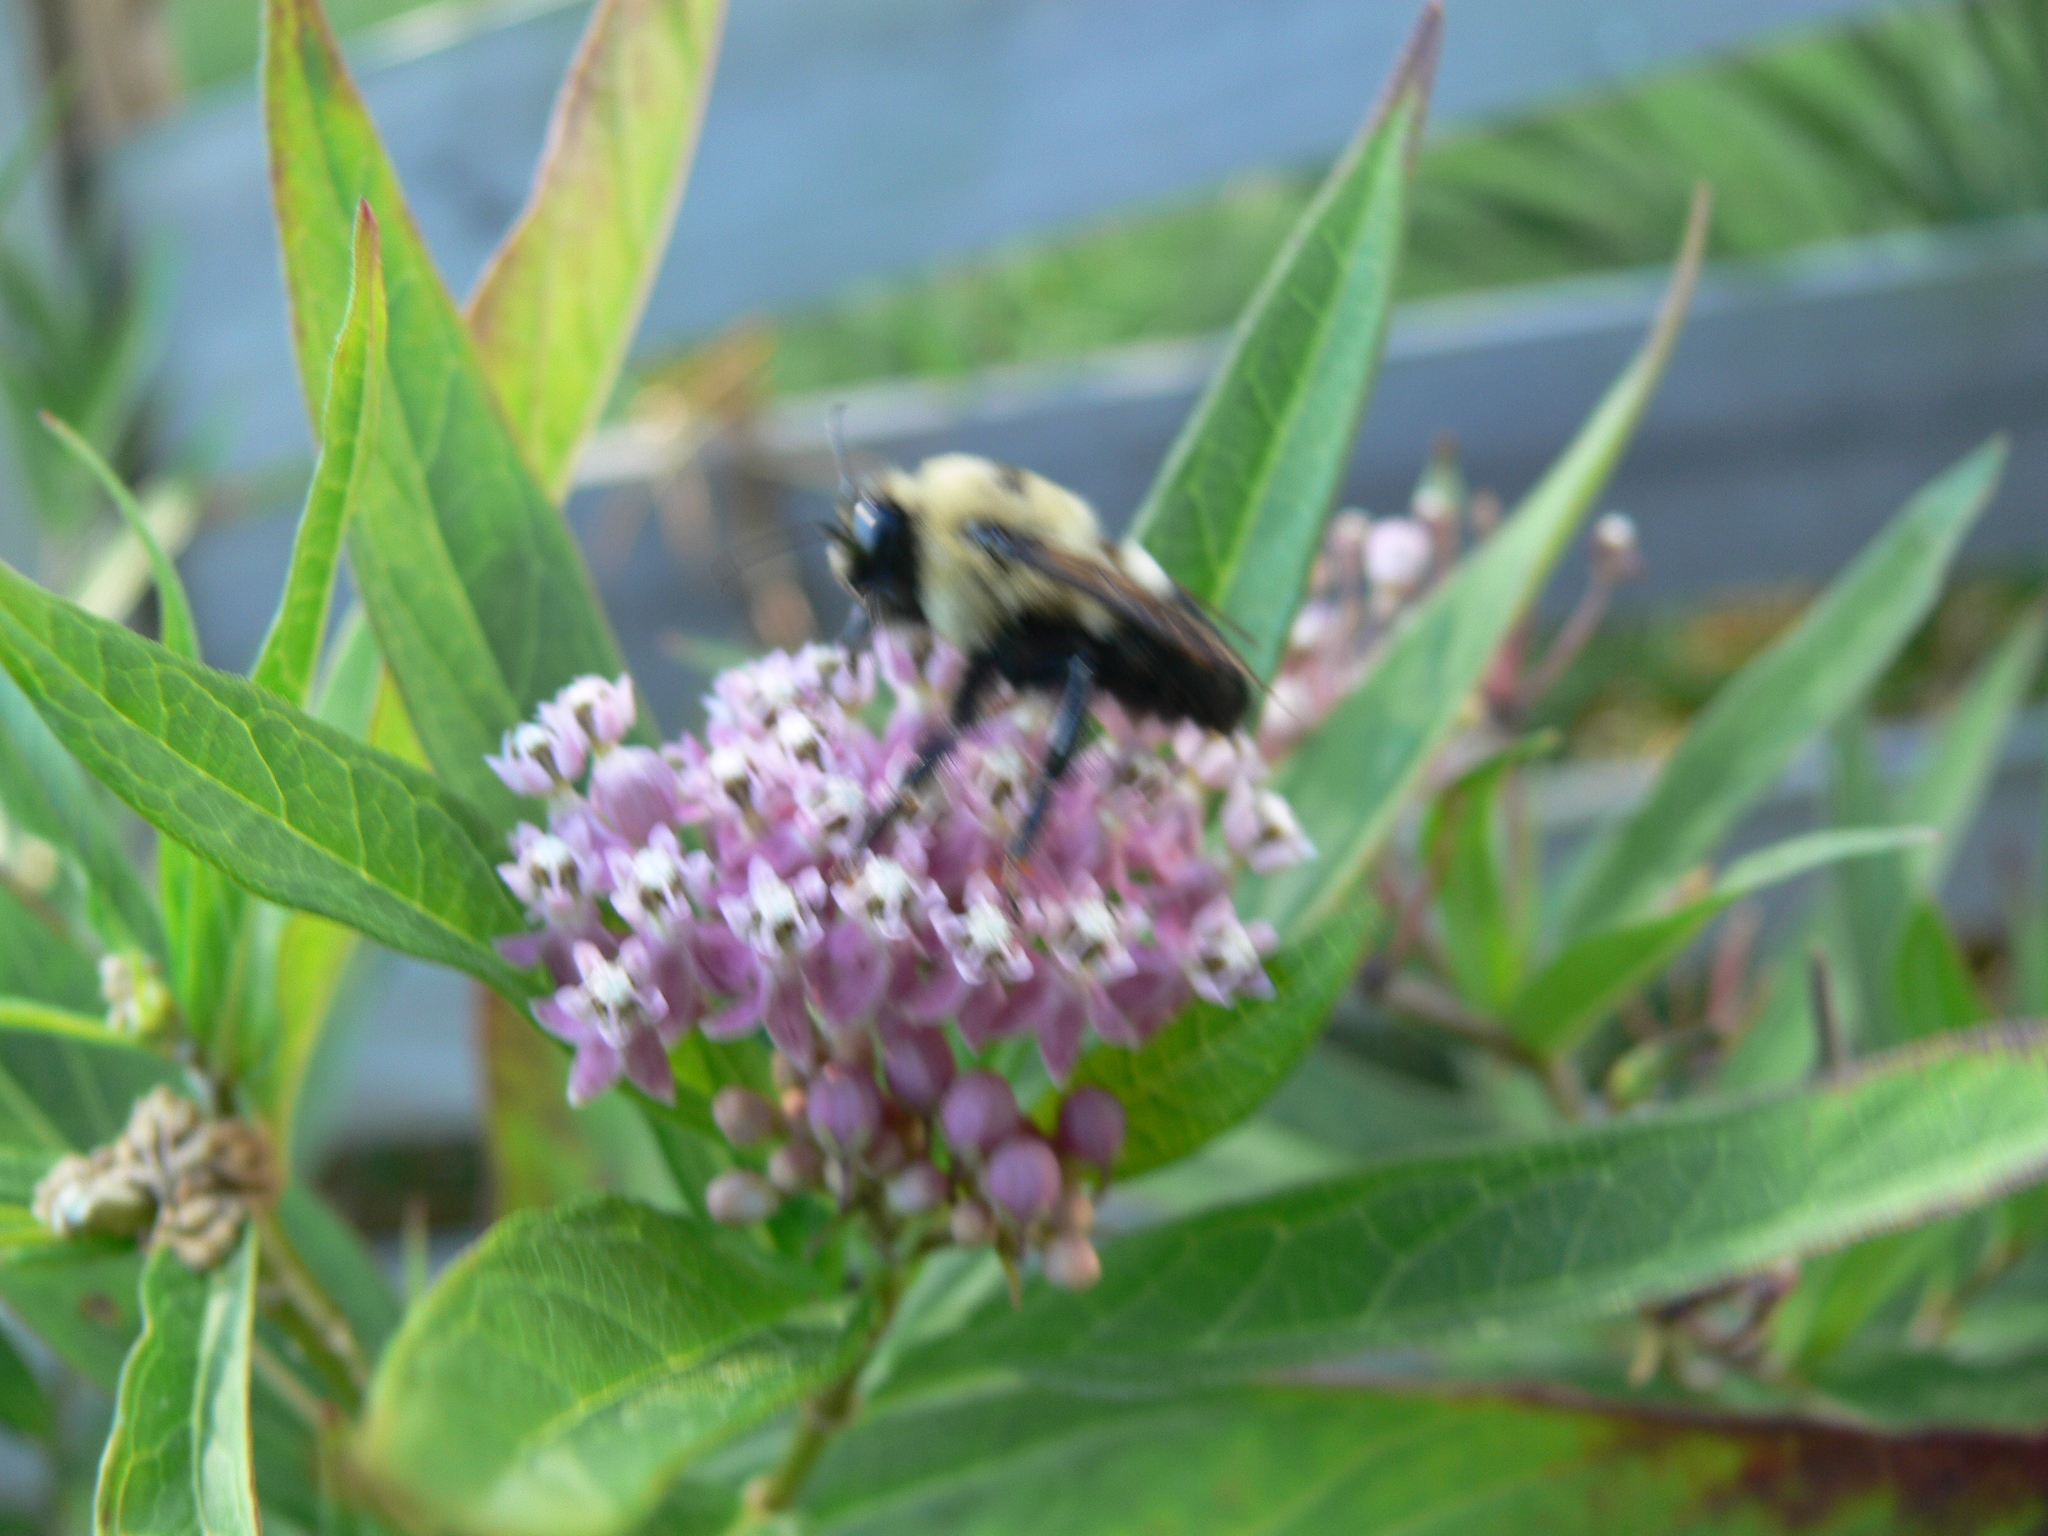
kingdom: Animalia
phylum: Arthropoda
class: Insecta
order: Hymenoptera
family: Apidae
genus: Bombus
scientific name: Bombus griseocollis
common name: Brown-belted bumble bee
